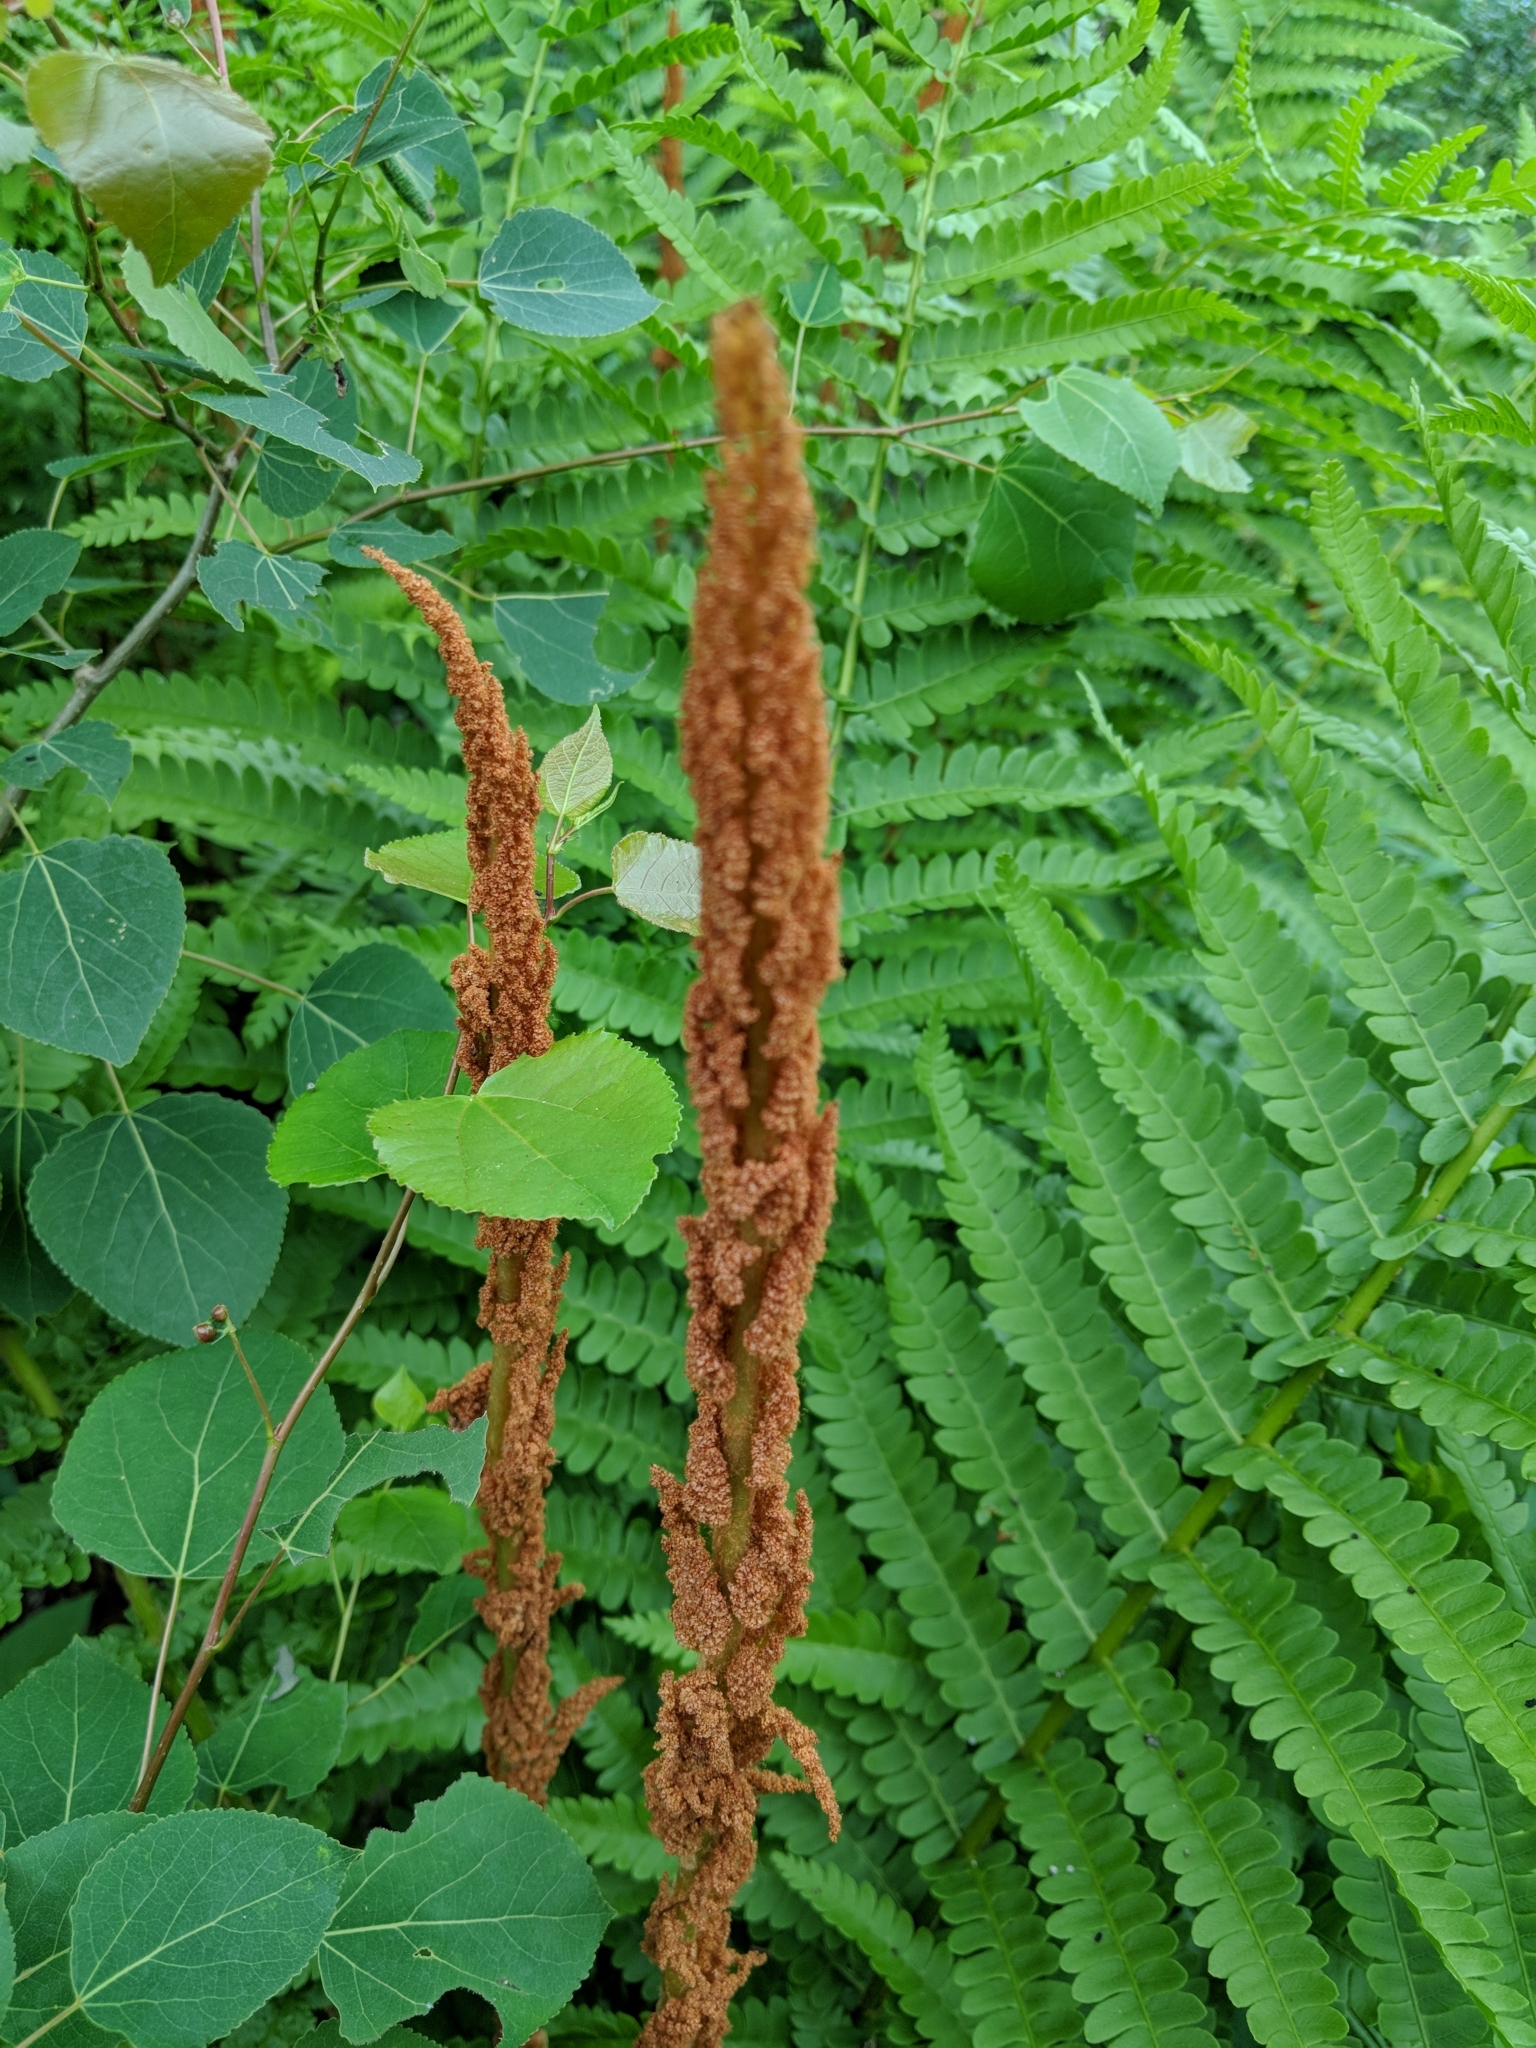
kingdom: Plantae
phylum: Tracheophyta
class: Polypodiopsida
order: Osmundales
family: Osmundaceae
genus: Osmundastrum
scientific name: Osmundastrum cinnamomeum
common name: Cinnamon fern
